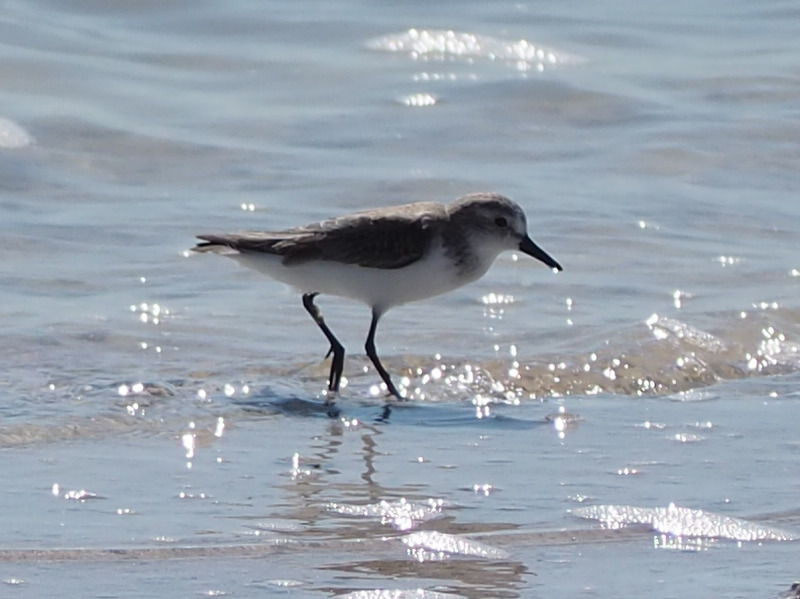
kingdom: Animalia
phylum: Chordata
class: Aves
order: Charadriiformes
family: Scolopacidae
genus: Calidris
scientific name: Calidris pusilla
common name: Semipalmated sandpiper
